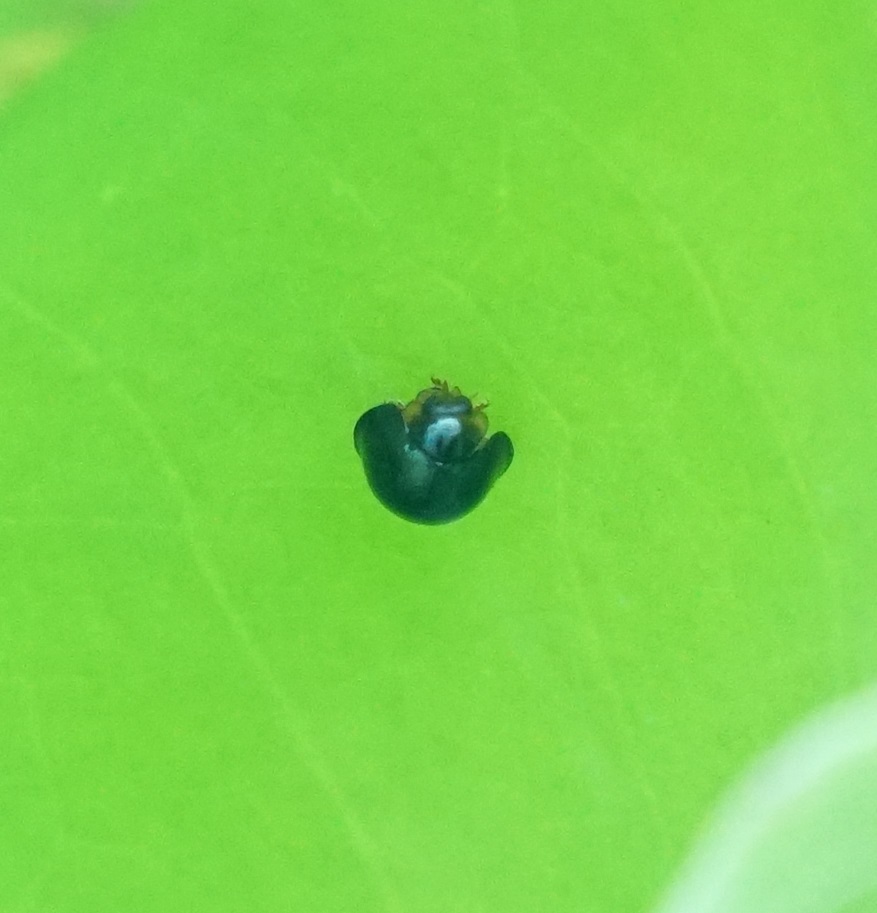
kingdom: Animalia
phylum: Arthropoda
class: Insecta
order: Coleoptera
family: Coccinellidae
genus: Halmus
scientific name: Halmus chalybeus
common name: Steel blue ladybird beetle
